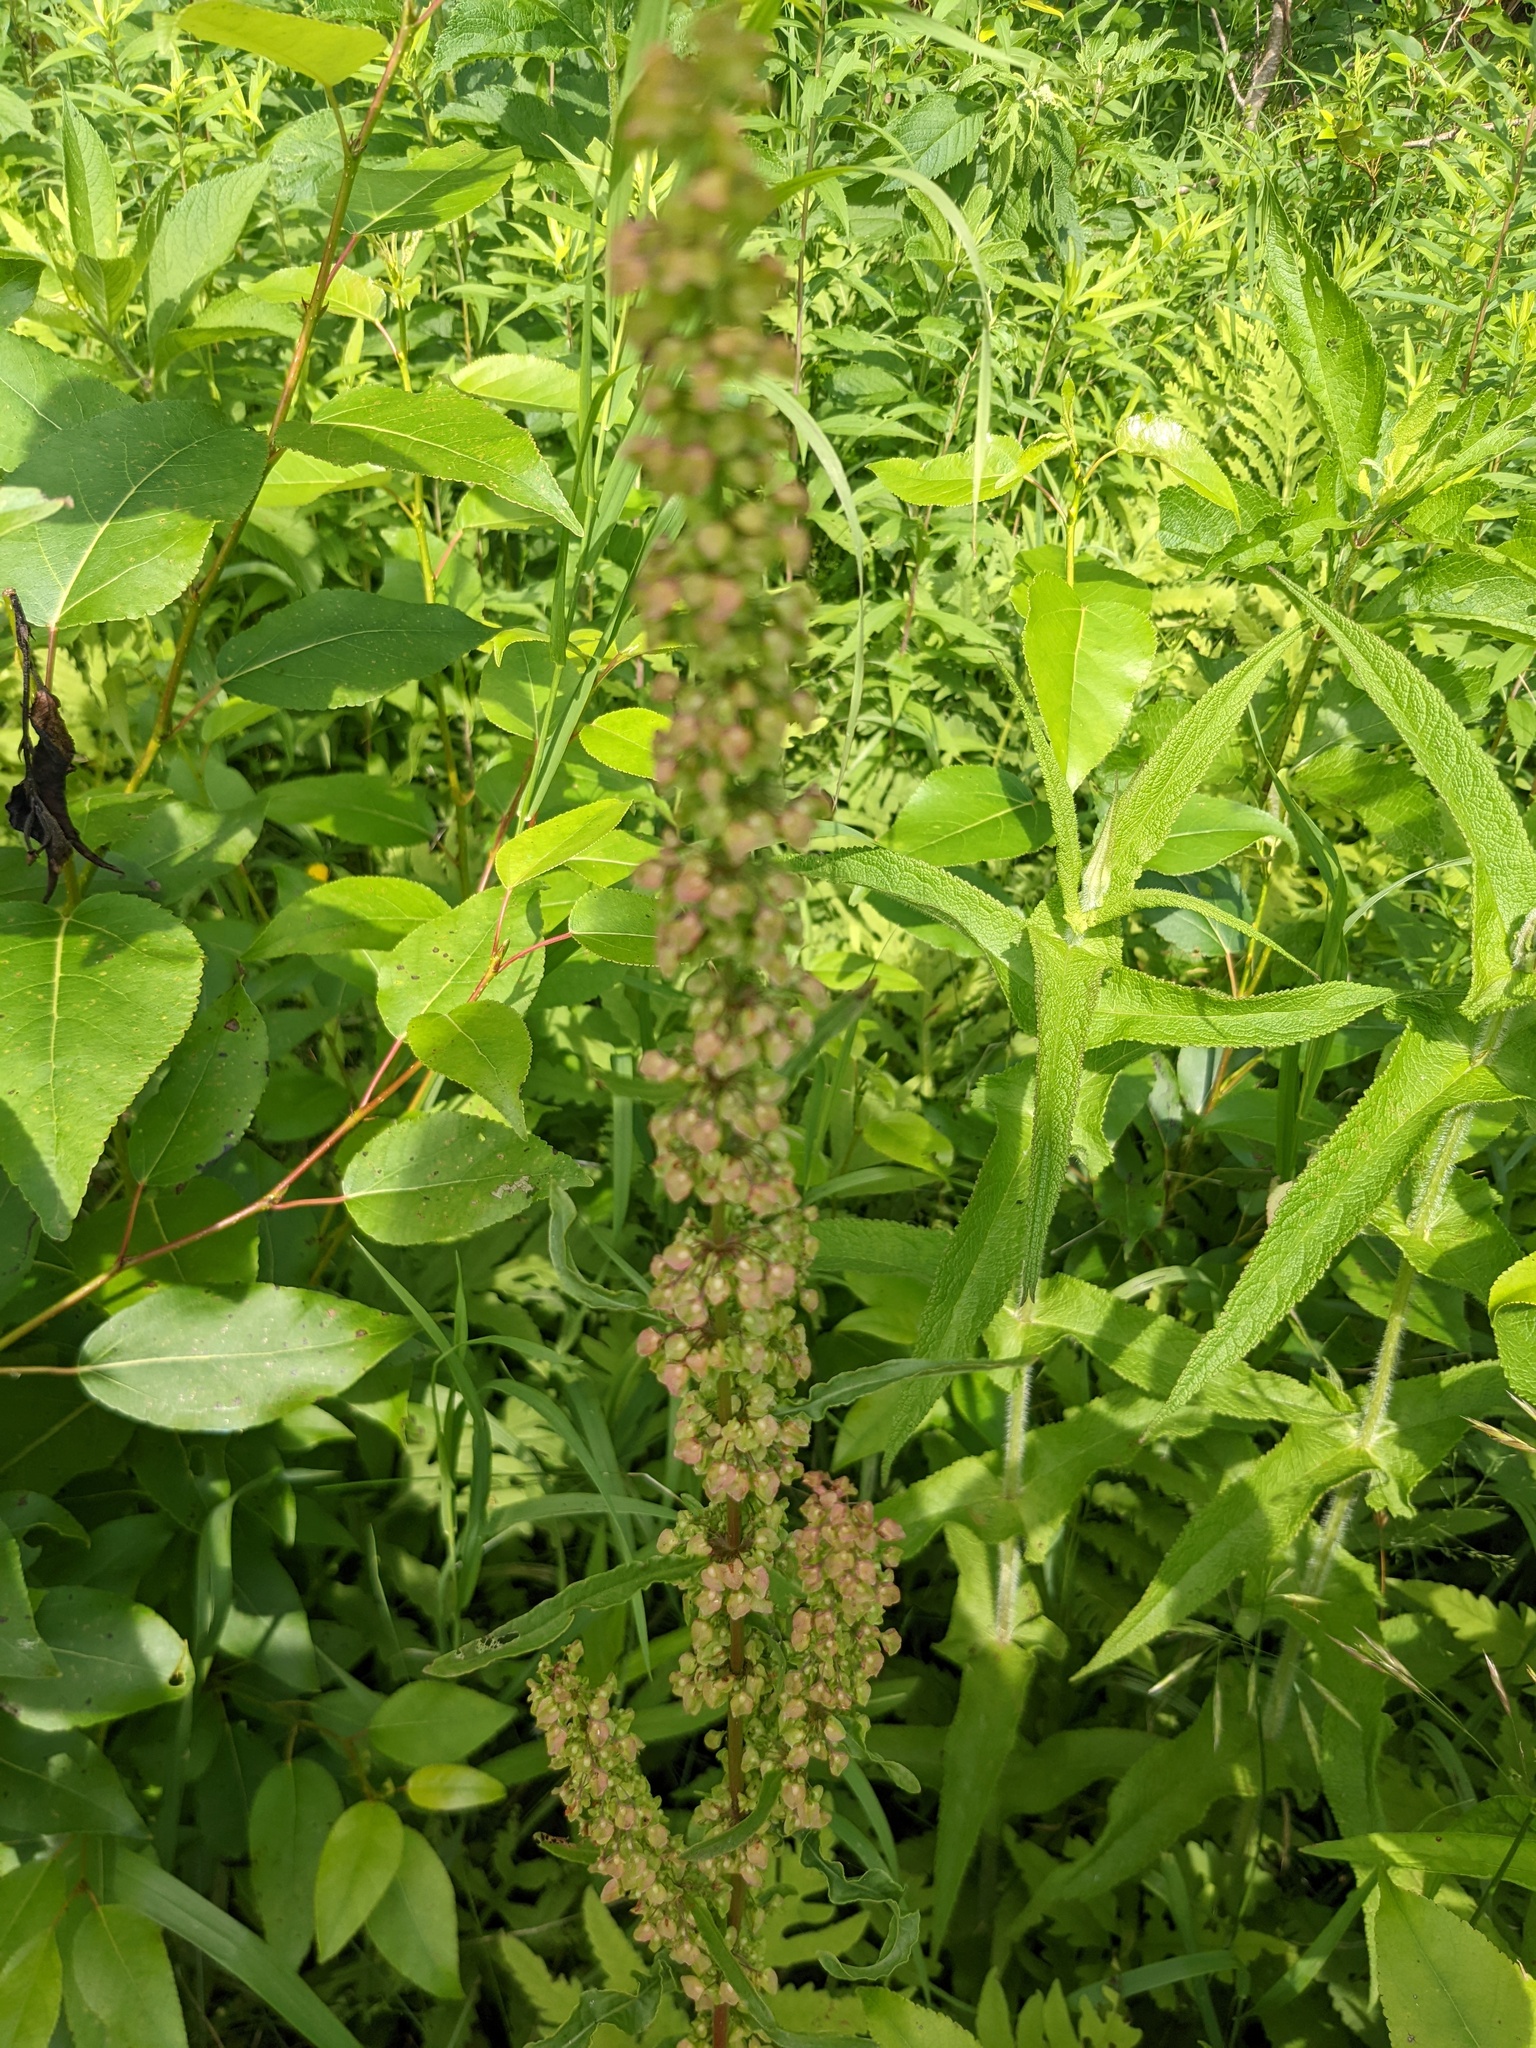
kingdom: Plantae
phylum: Tracheophyta
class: Magnoliopsida
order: Caryophyllales
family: Polygonaceae
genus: Rumex
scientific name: Rumex crispus
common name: Curled dock
